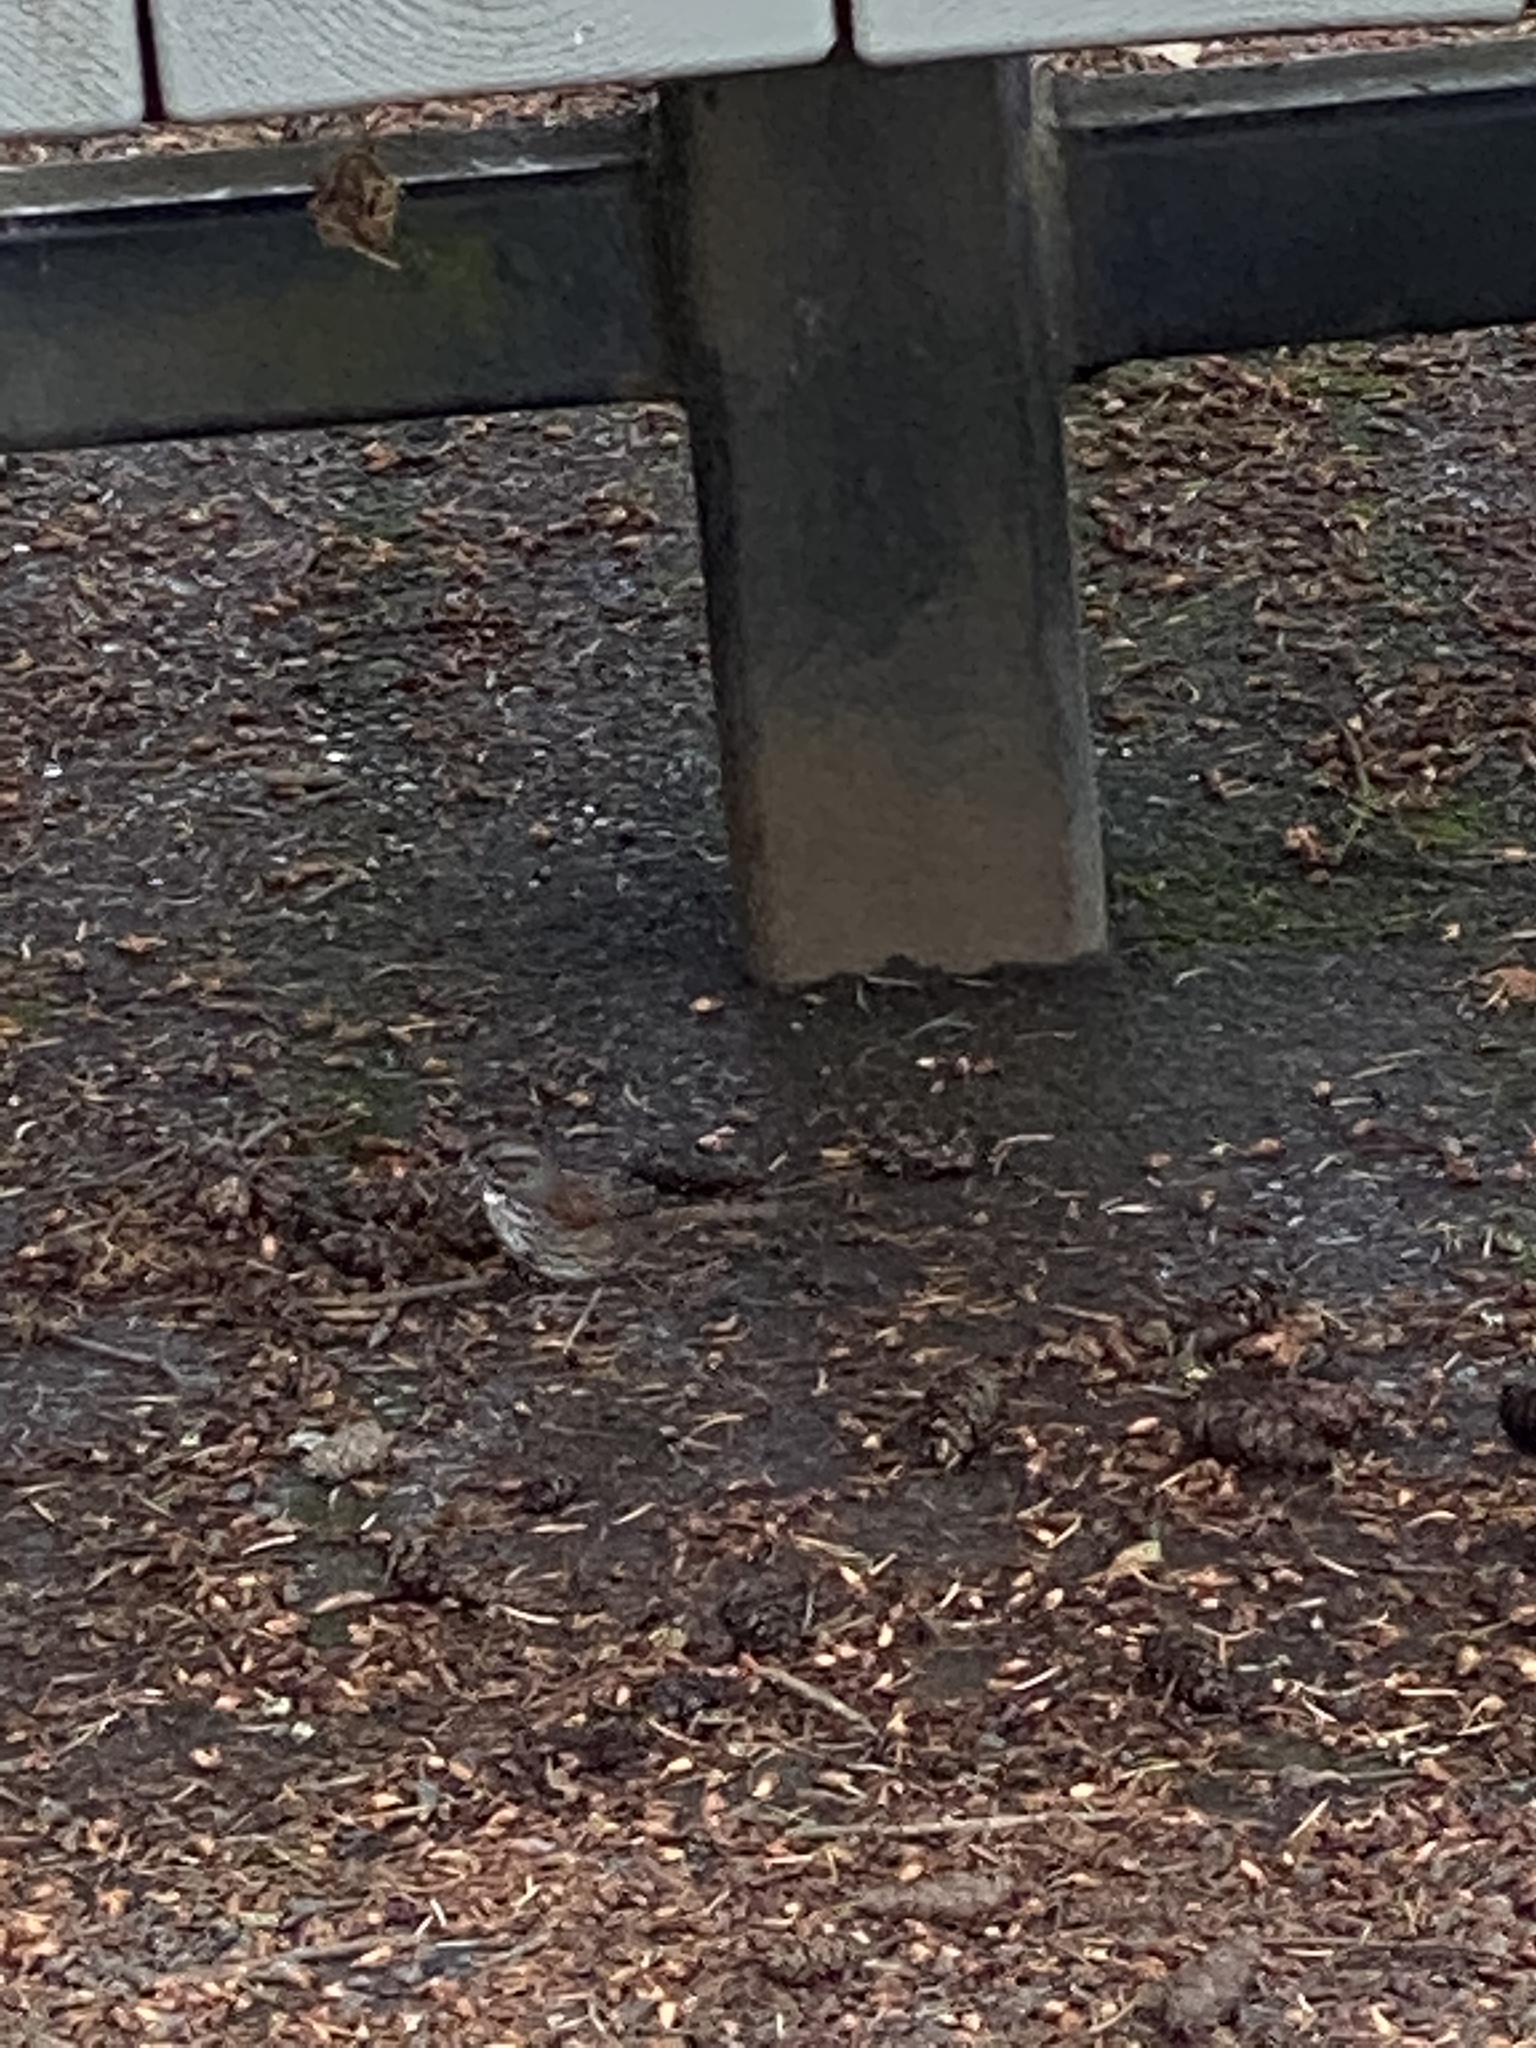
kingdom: Animalia
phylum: Chordata
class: Aves
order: Passeriformes
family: Passerellidae
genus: Melospiza
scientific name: Melospiza melodia
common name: Song sparrow
